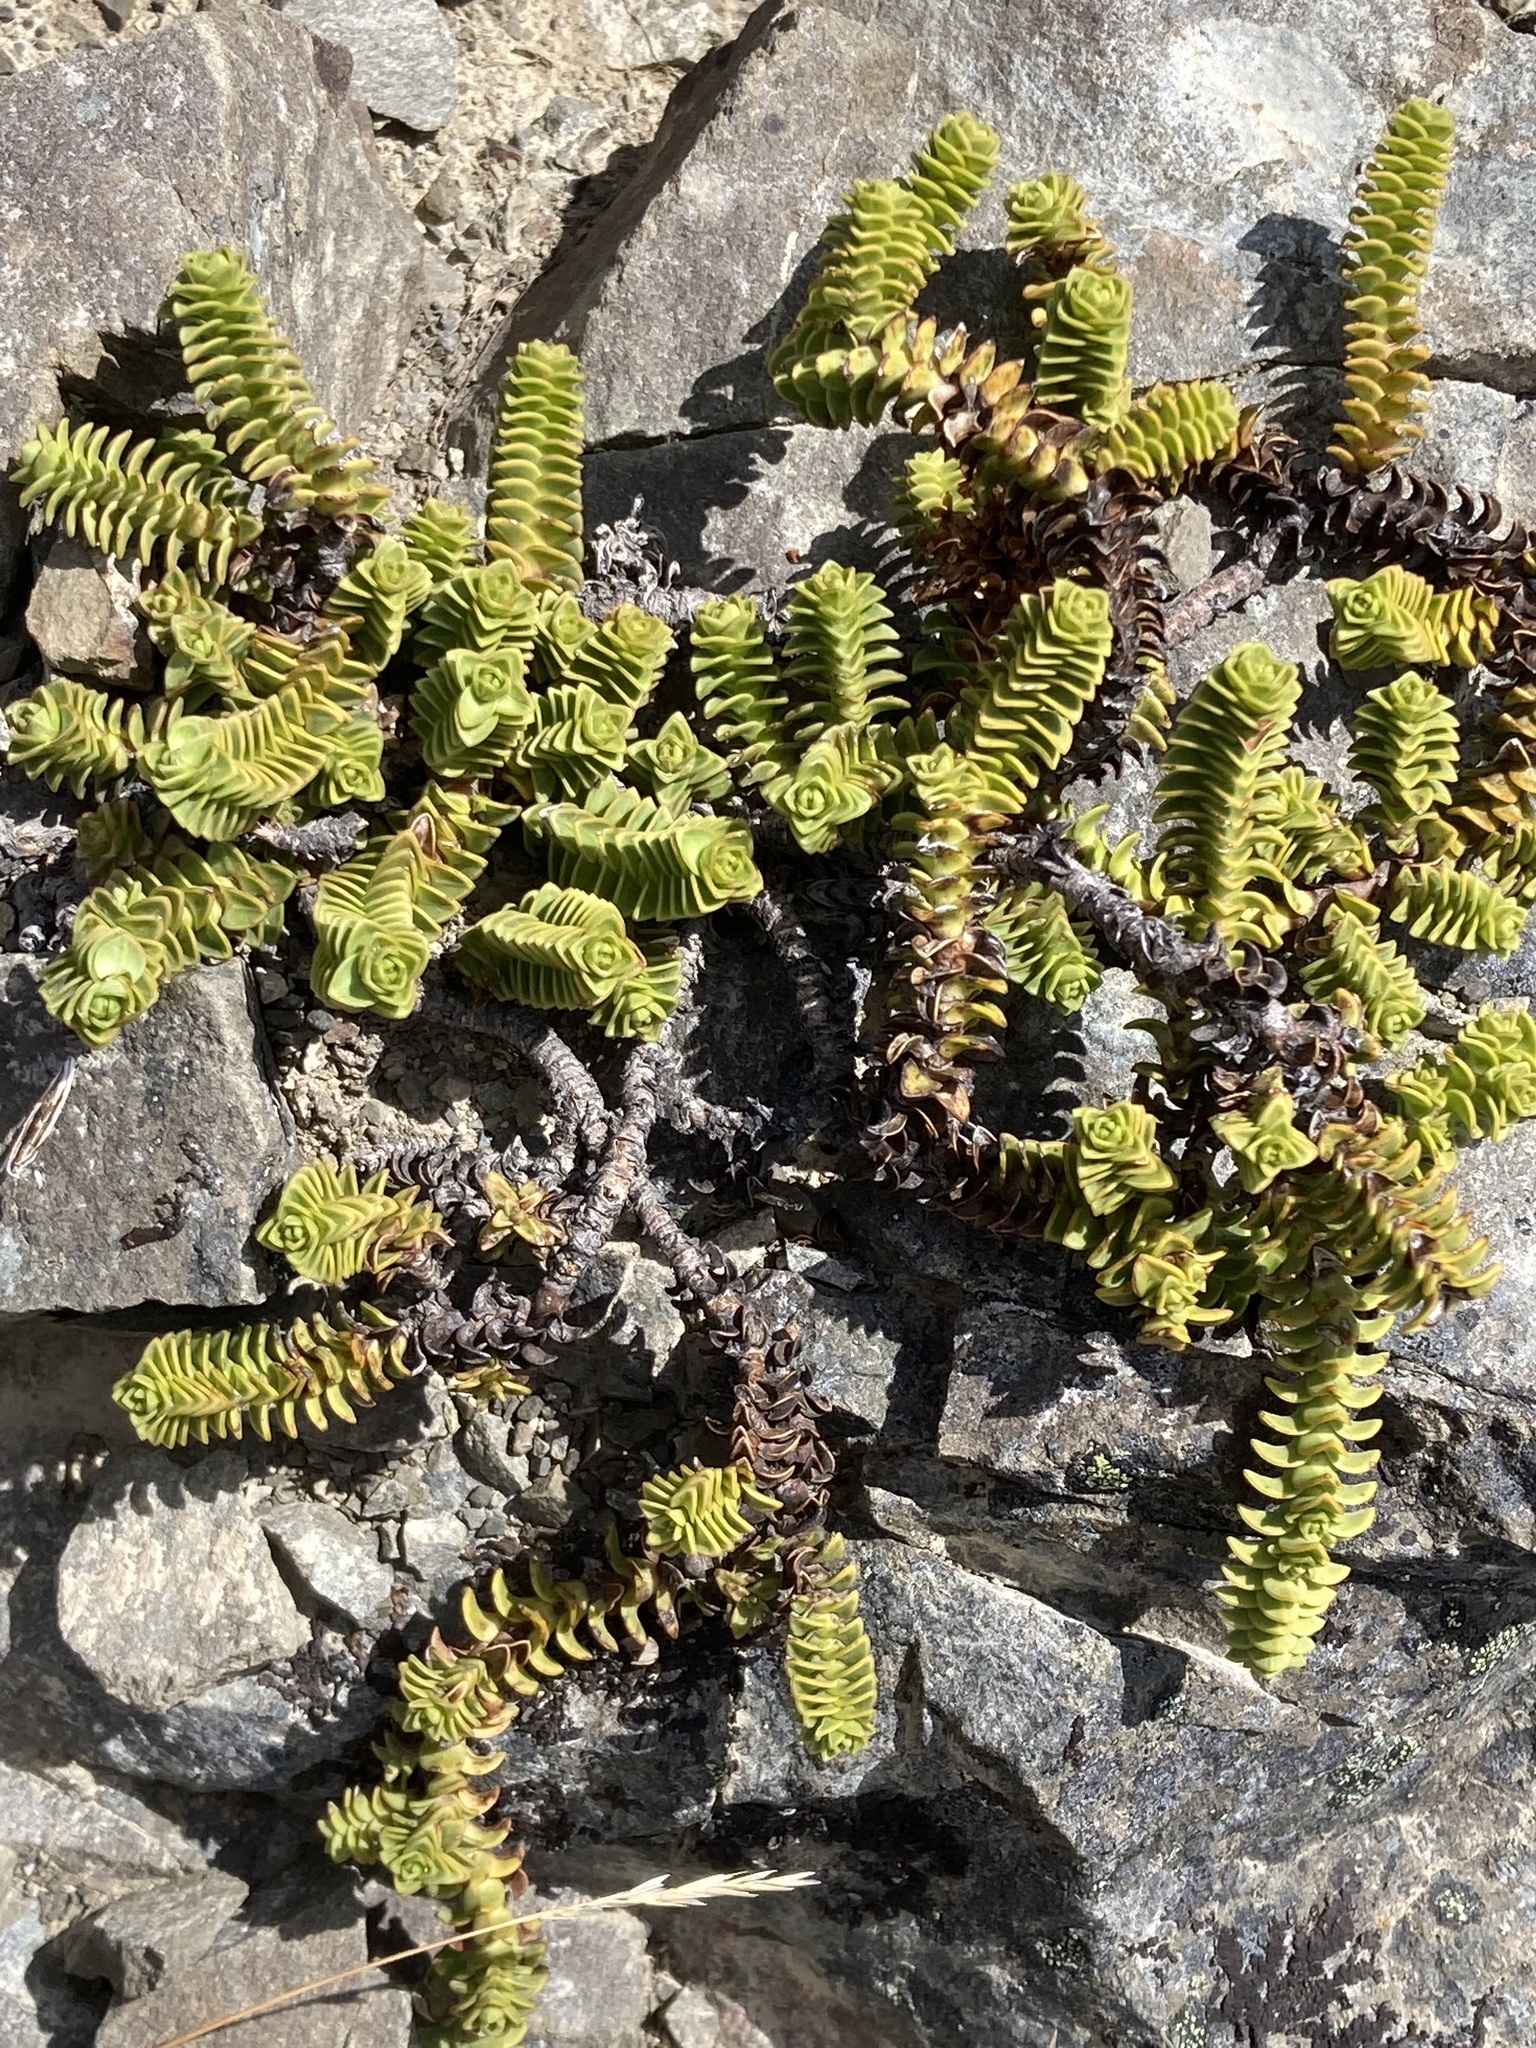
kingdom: Plantae
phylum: Tracheophyta
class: Magnoliopsida
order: Lamiales
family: Plantaginaceae
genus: Veronica
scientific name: Veronica epacridea
